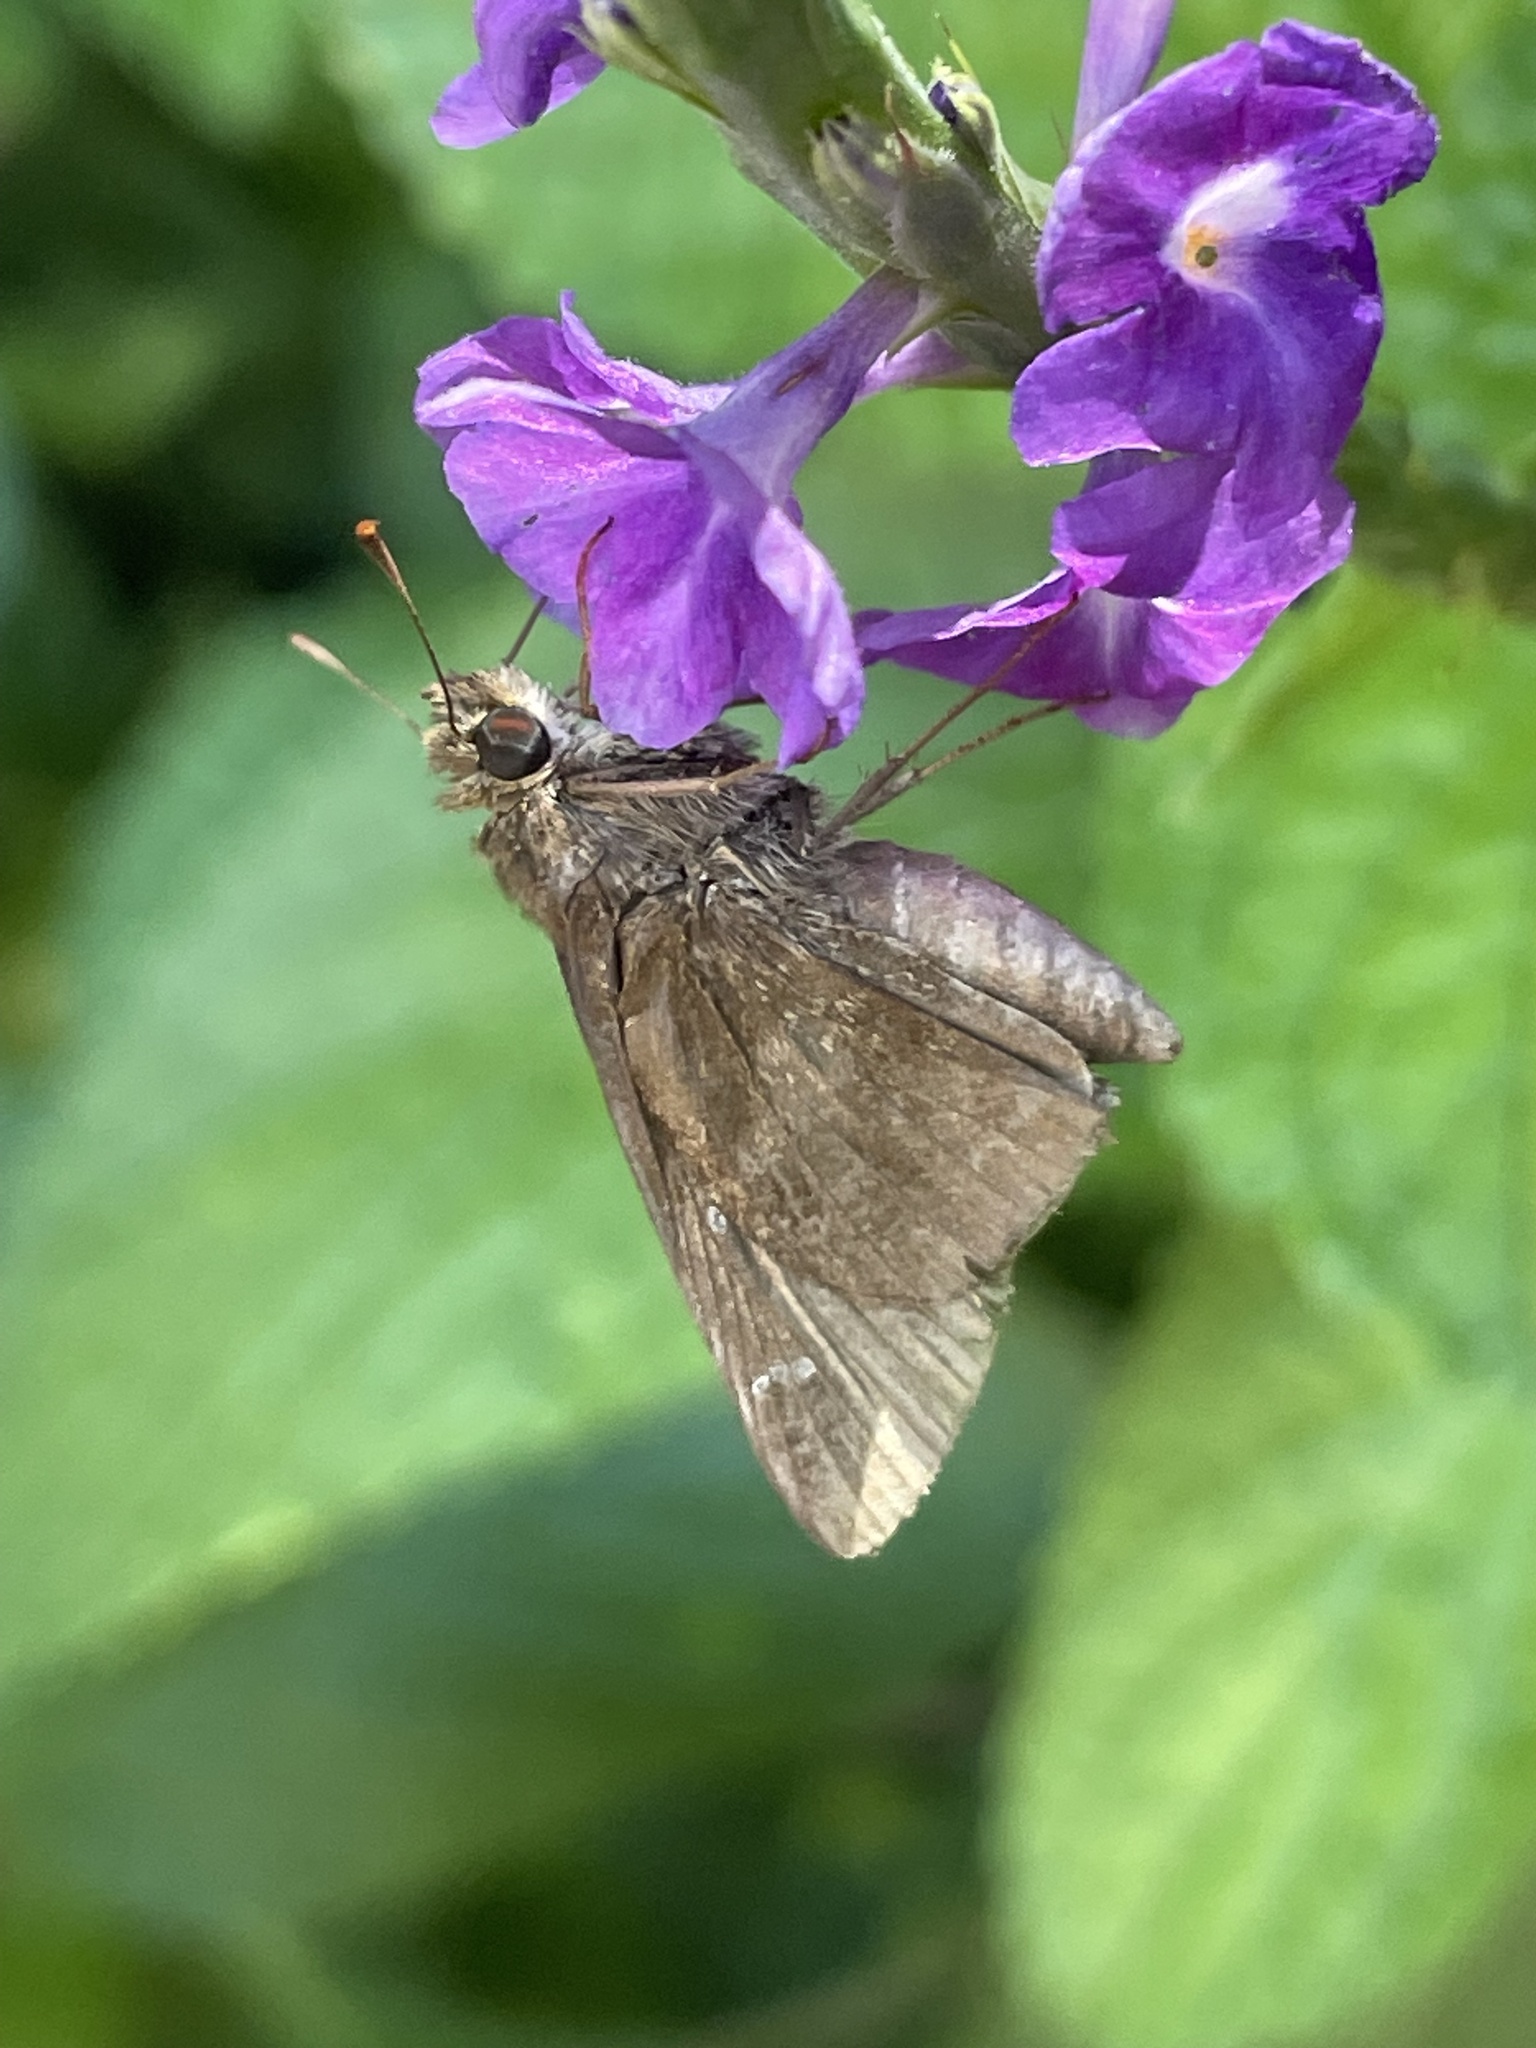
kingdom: Animalia
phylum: Arthropoda
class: Insecta
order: Lepidoptera
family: Hesperiidae
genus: Lerema
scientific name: Lerema accius
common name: Clouded skipper
